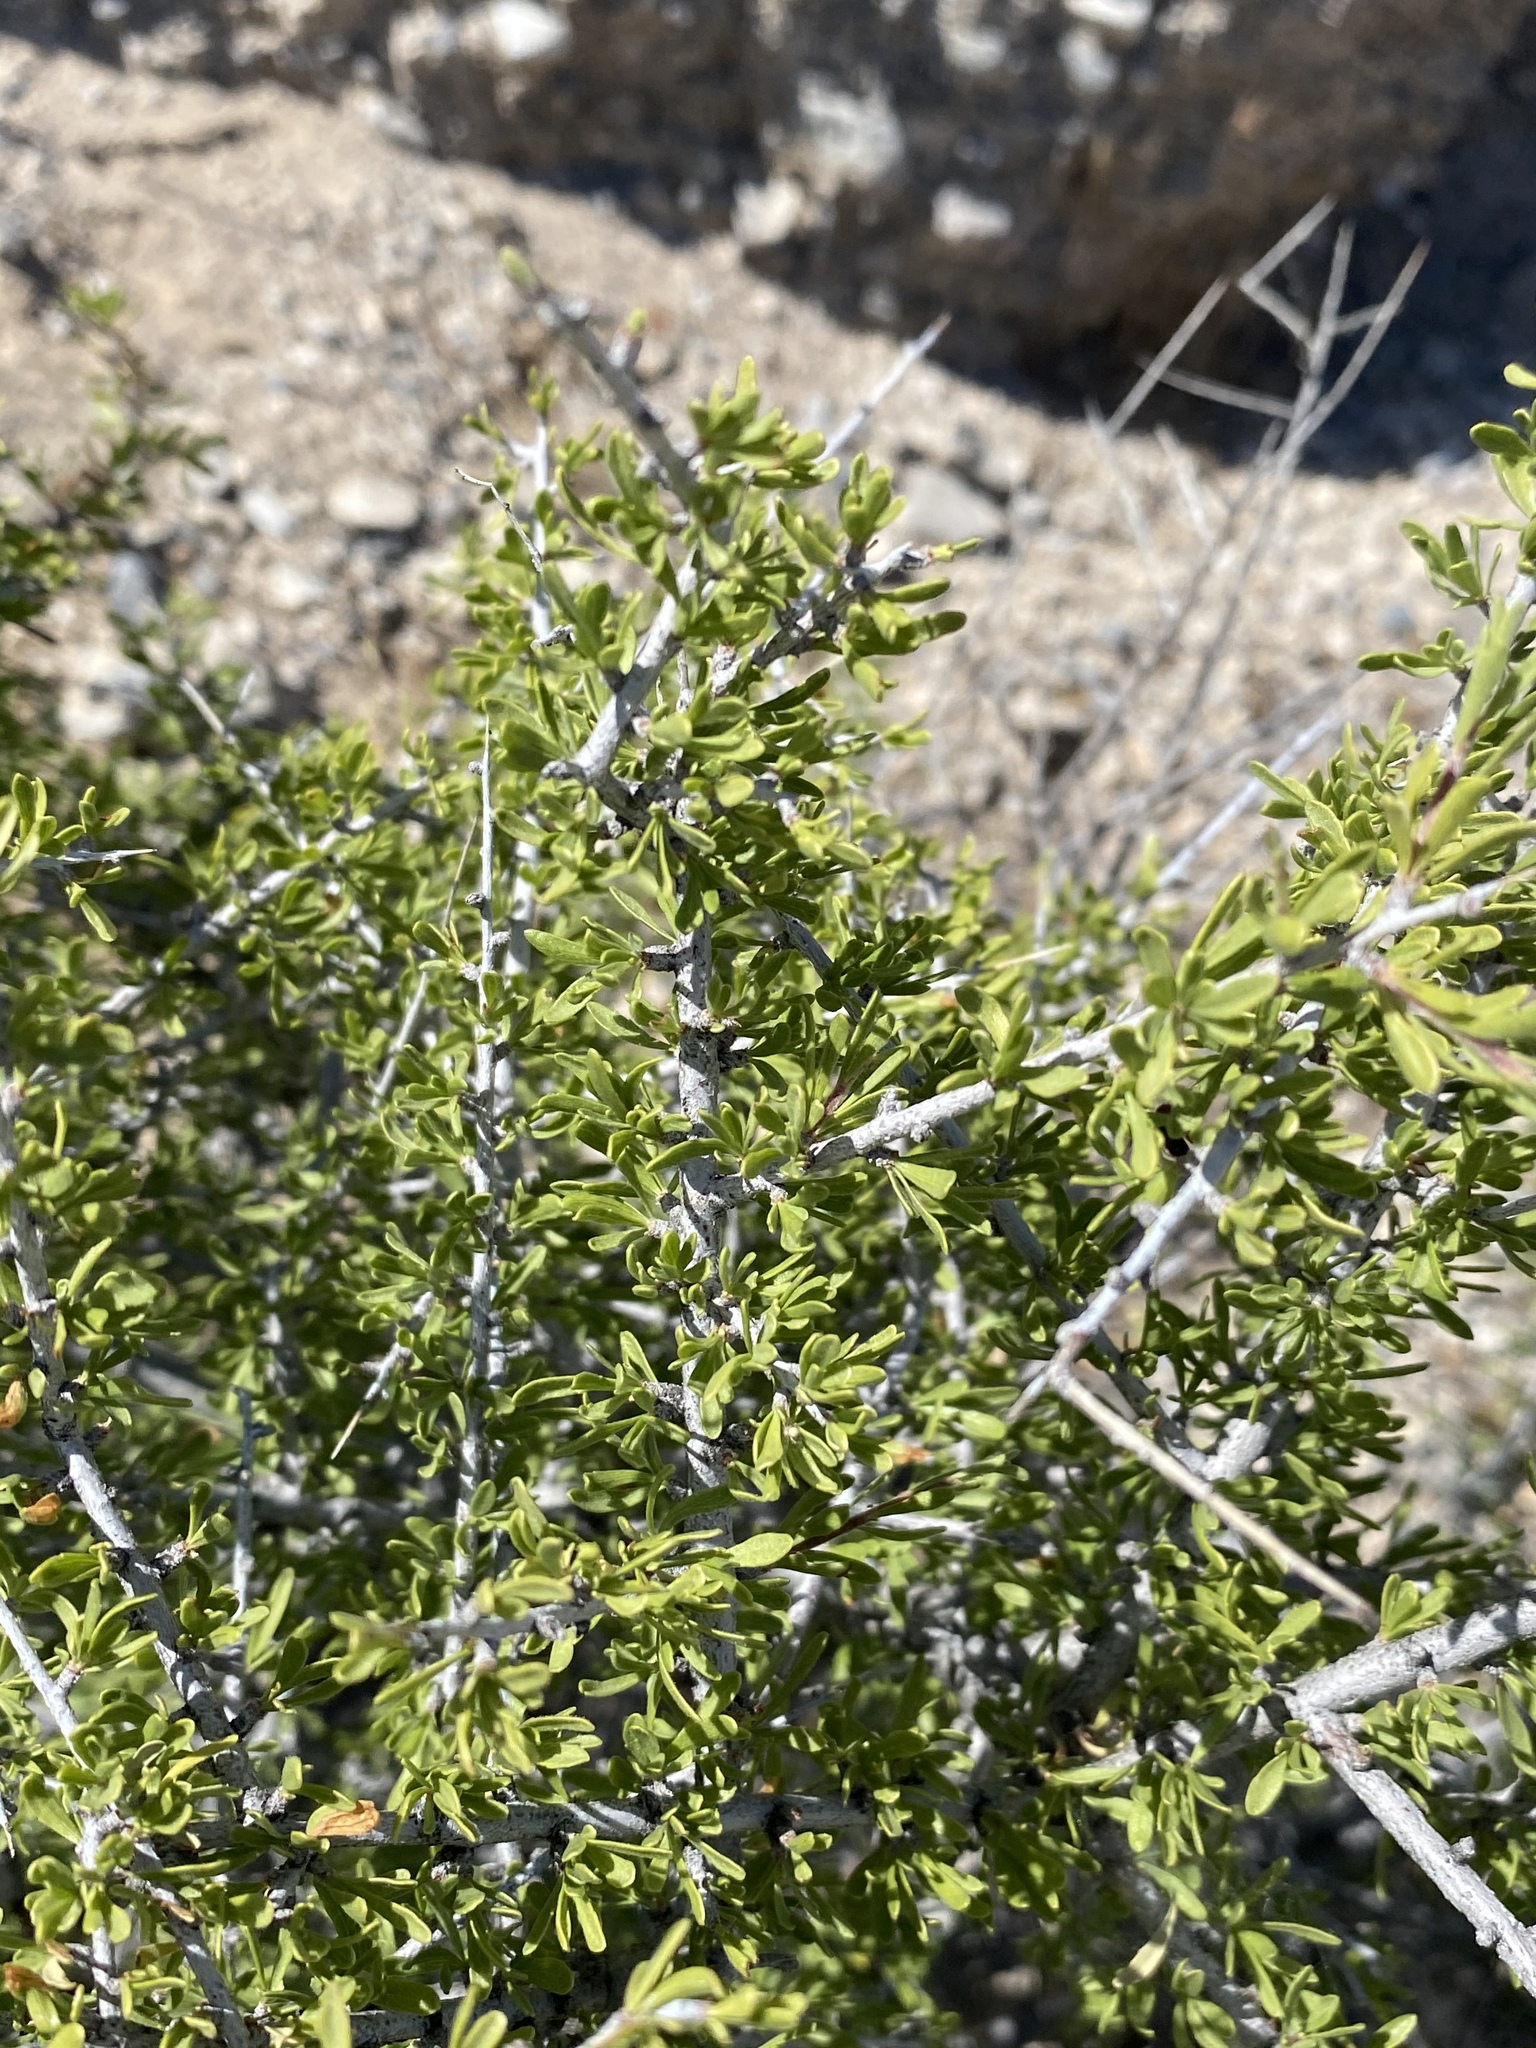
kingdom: Plantae
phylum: Tracheophyta
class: Magnoliopsida
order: Rosales
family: Rosaceae
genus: Prunus
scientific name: Prunus fasciculata
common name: Desert almond
